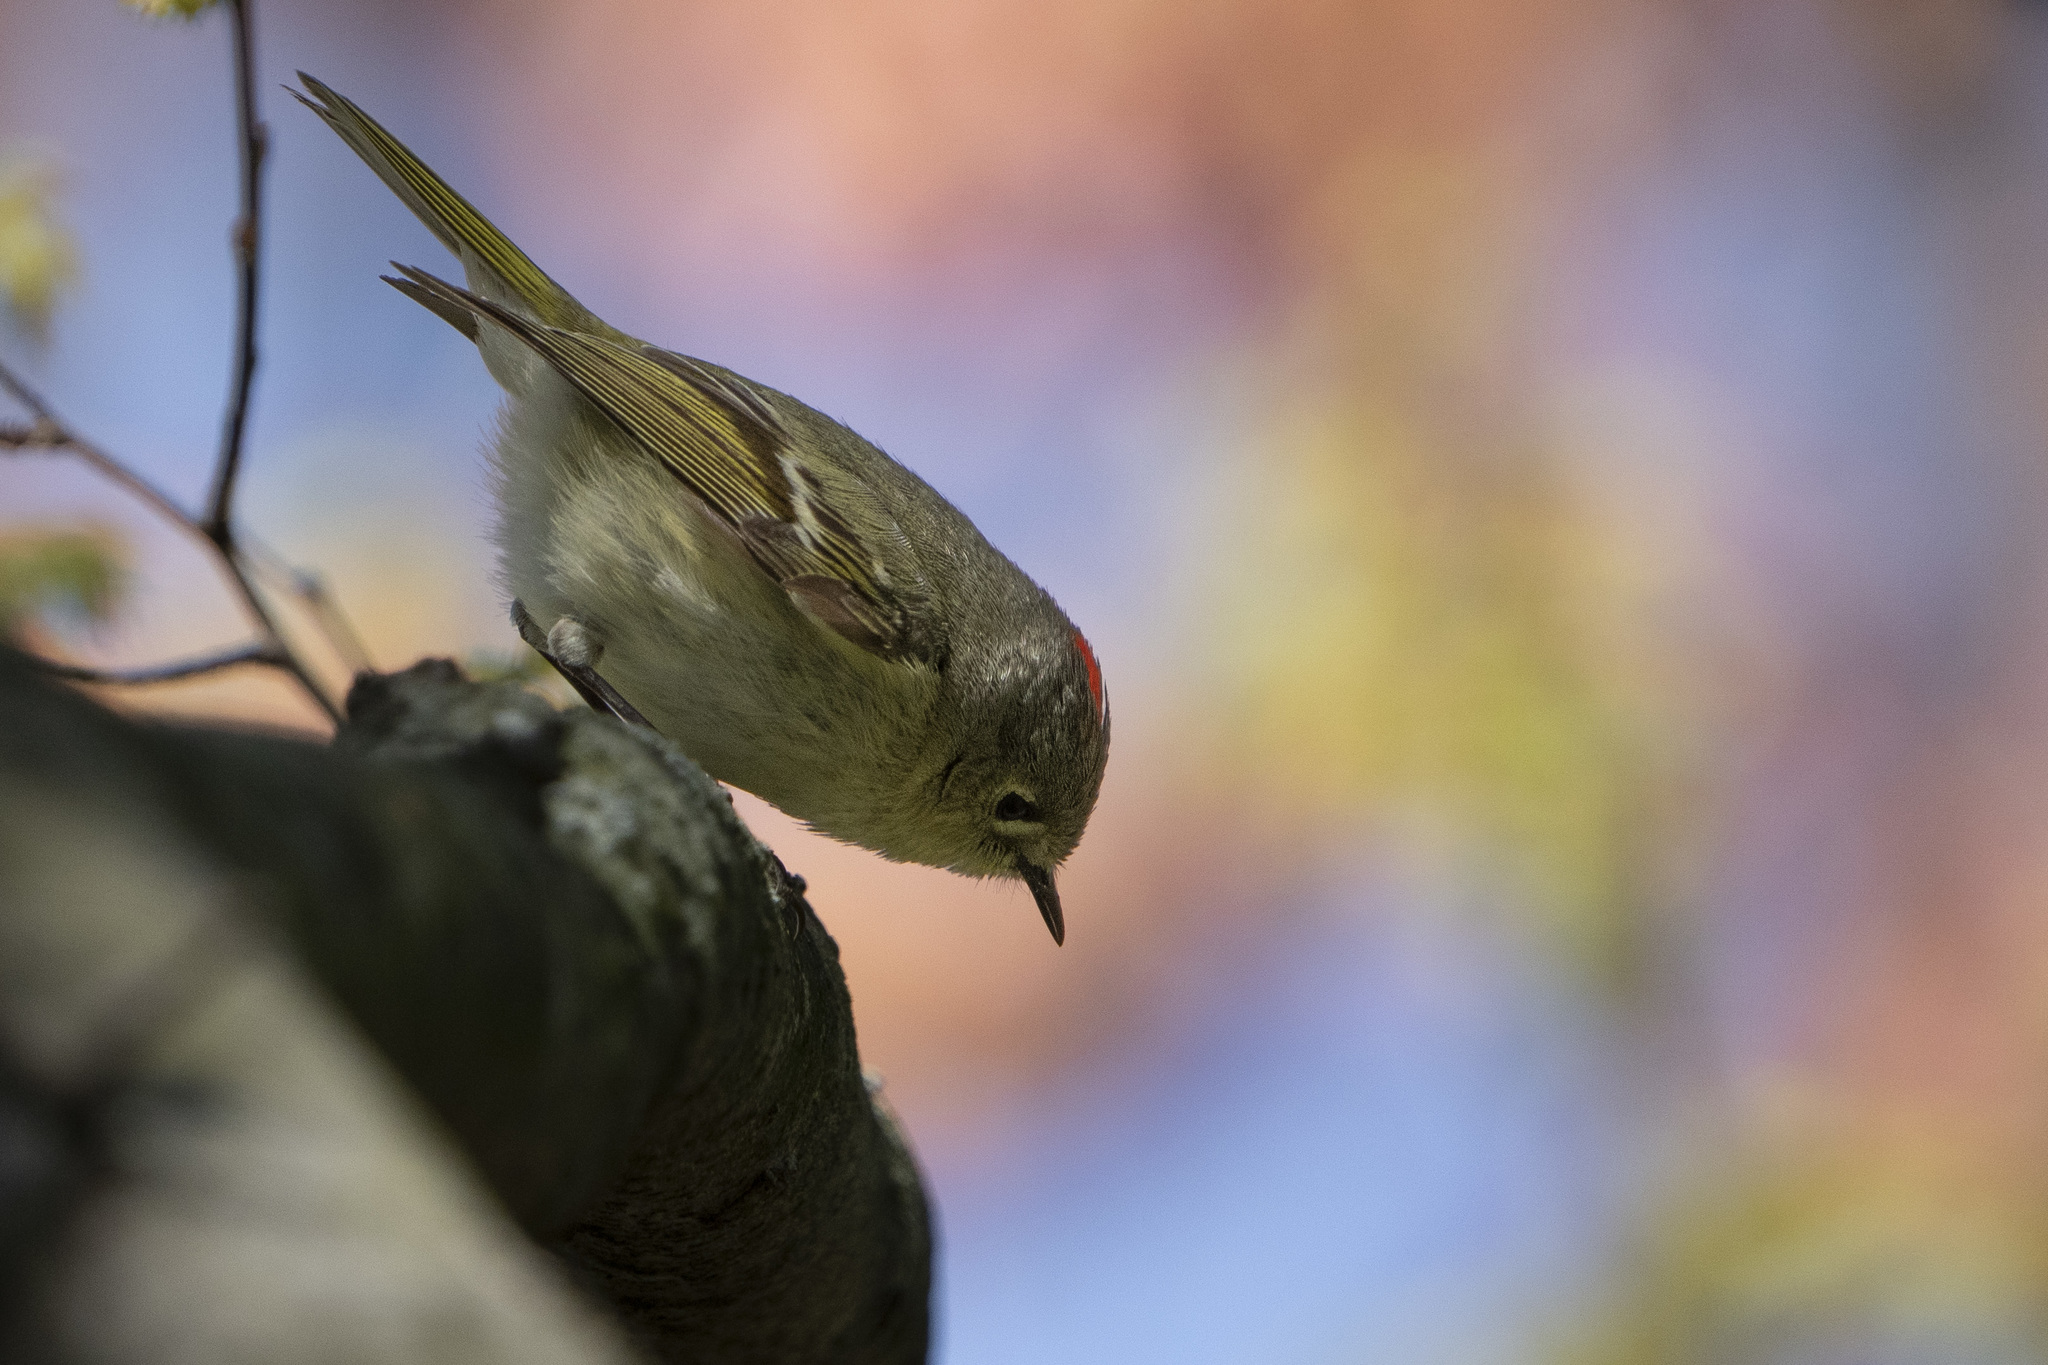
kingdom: Animalia
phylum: Chordata
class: Aves
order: Passeriformes
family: Regulidae
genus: Regulus
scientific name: Regulus calendula
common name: Ruby-crowned kinglet
